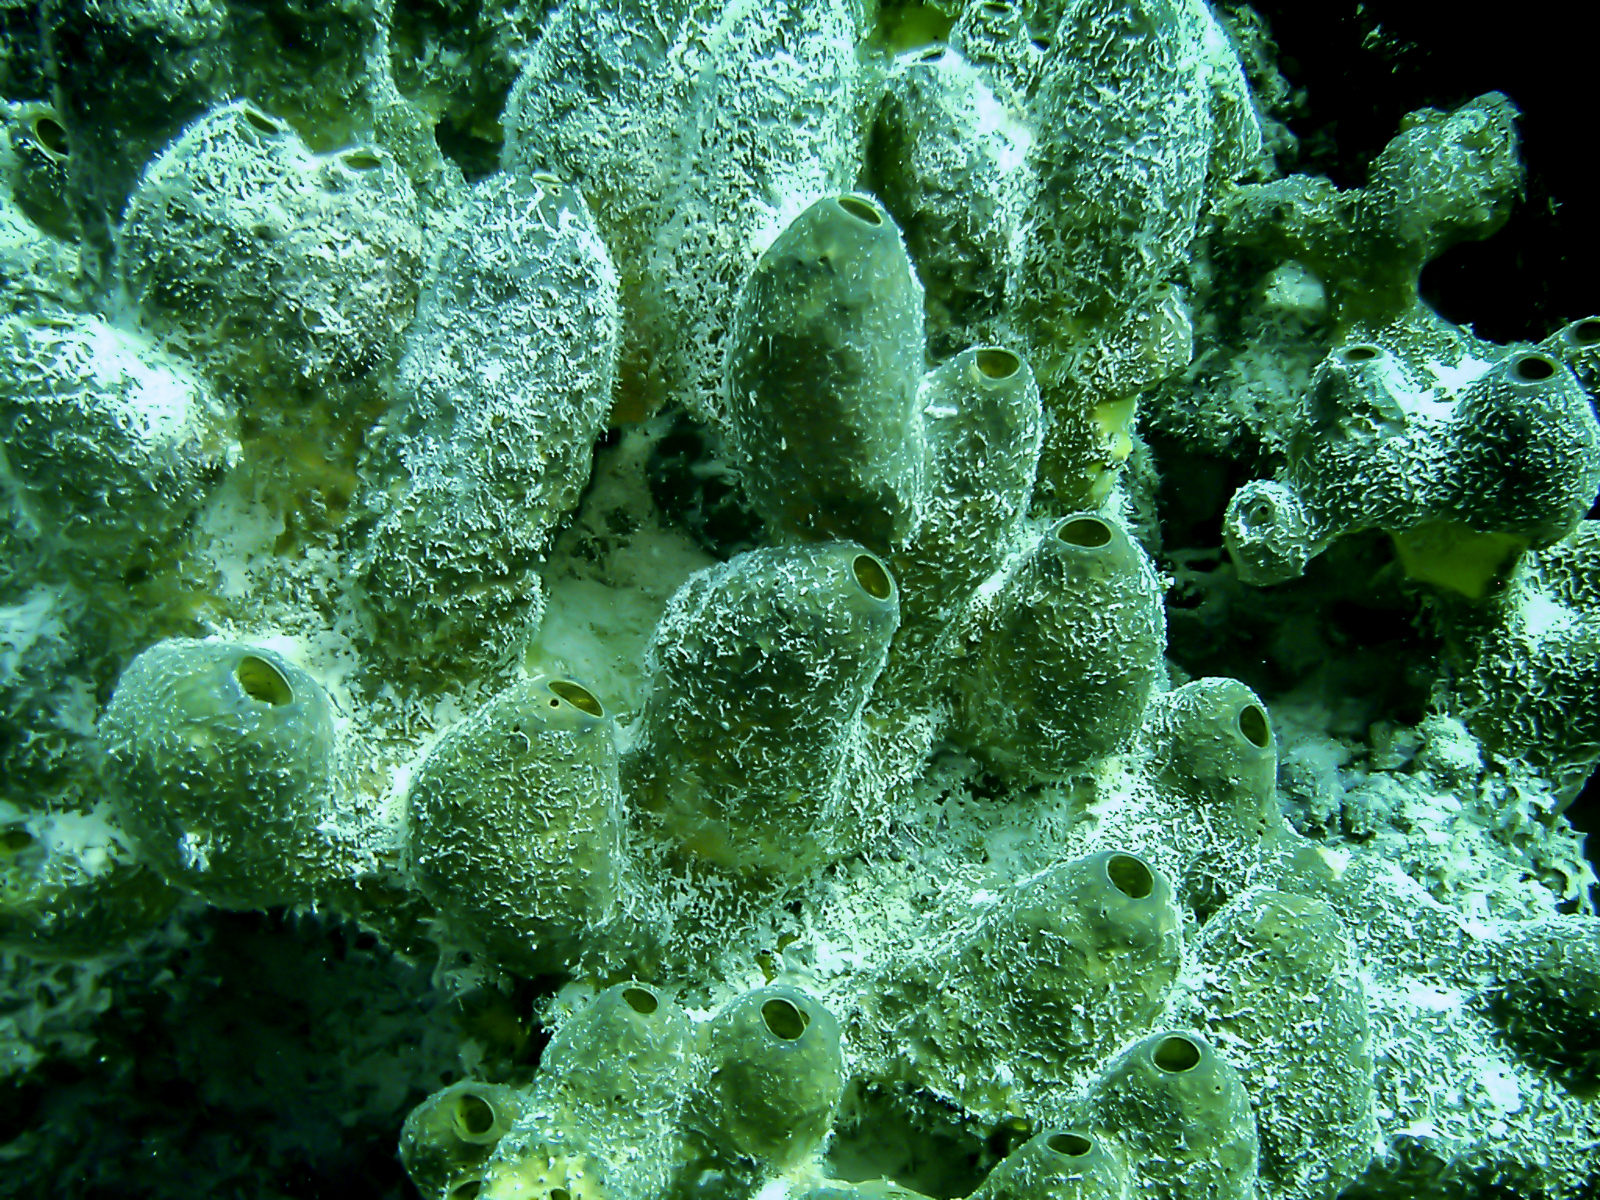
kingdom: Animalia
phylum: Porifera
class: Demospongiae
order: Verongiida
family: Aplysinidae
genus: Verongula
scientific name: Verongula reiswigi
